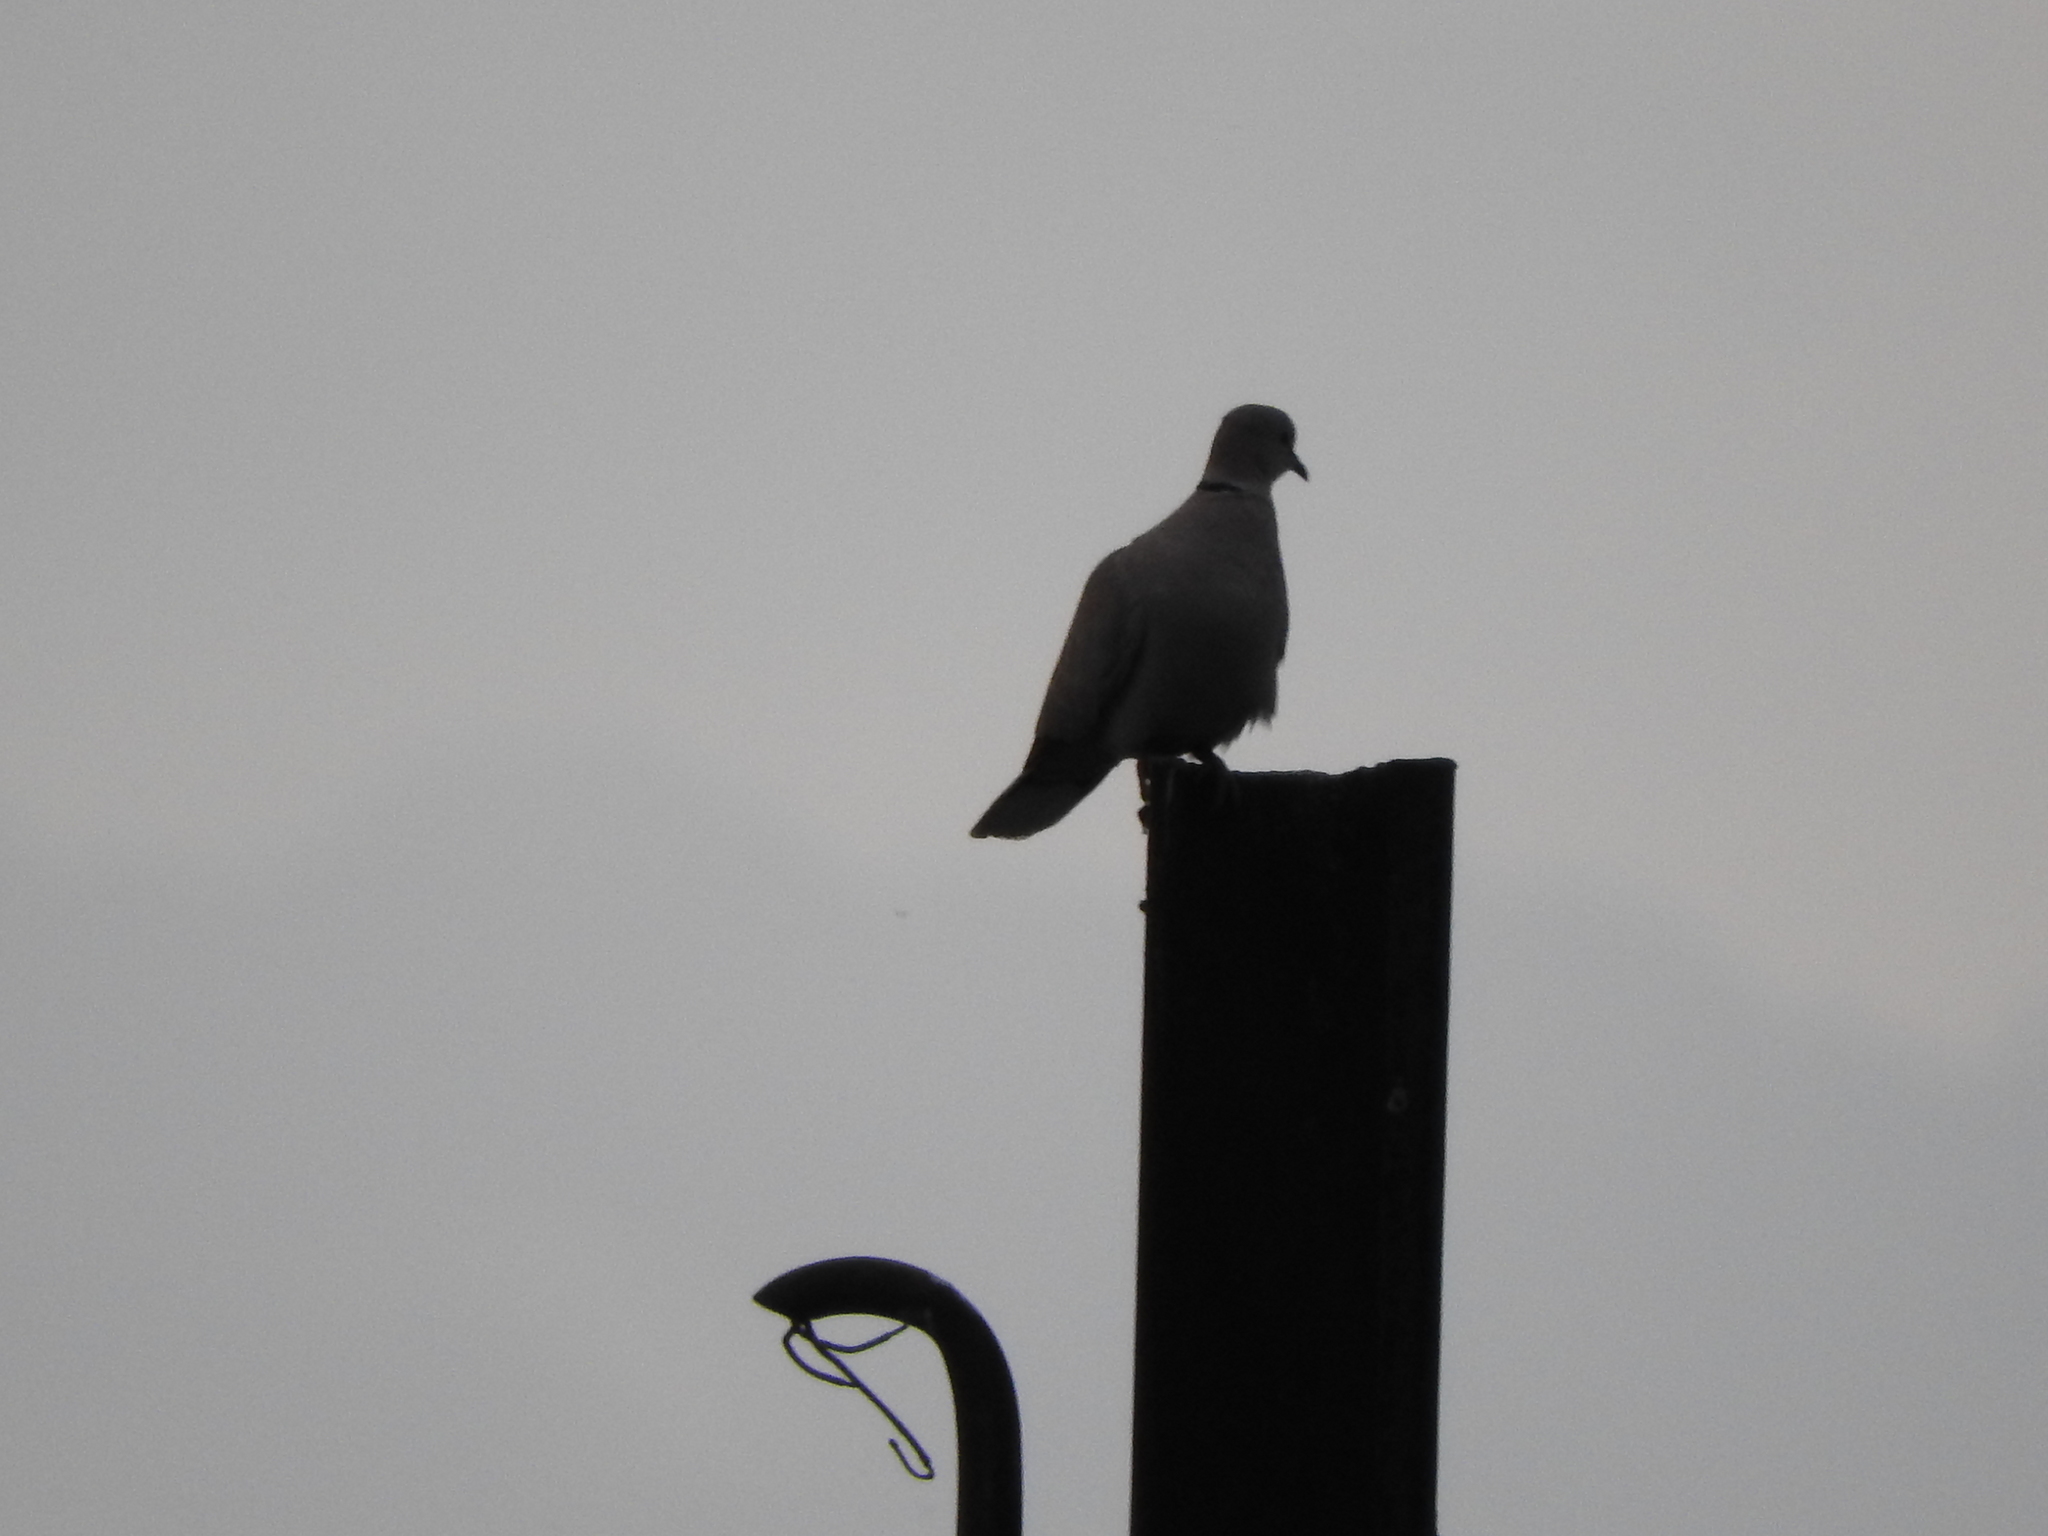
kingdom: Animalia
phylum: Chordata
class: Aves
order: Columbiformes
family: Columbidae
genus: Streptopelia
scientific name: Streptopelia decaocto
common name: Eurasian collared dove
